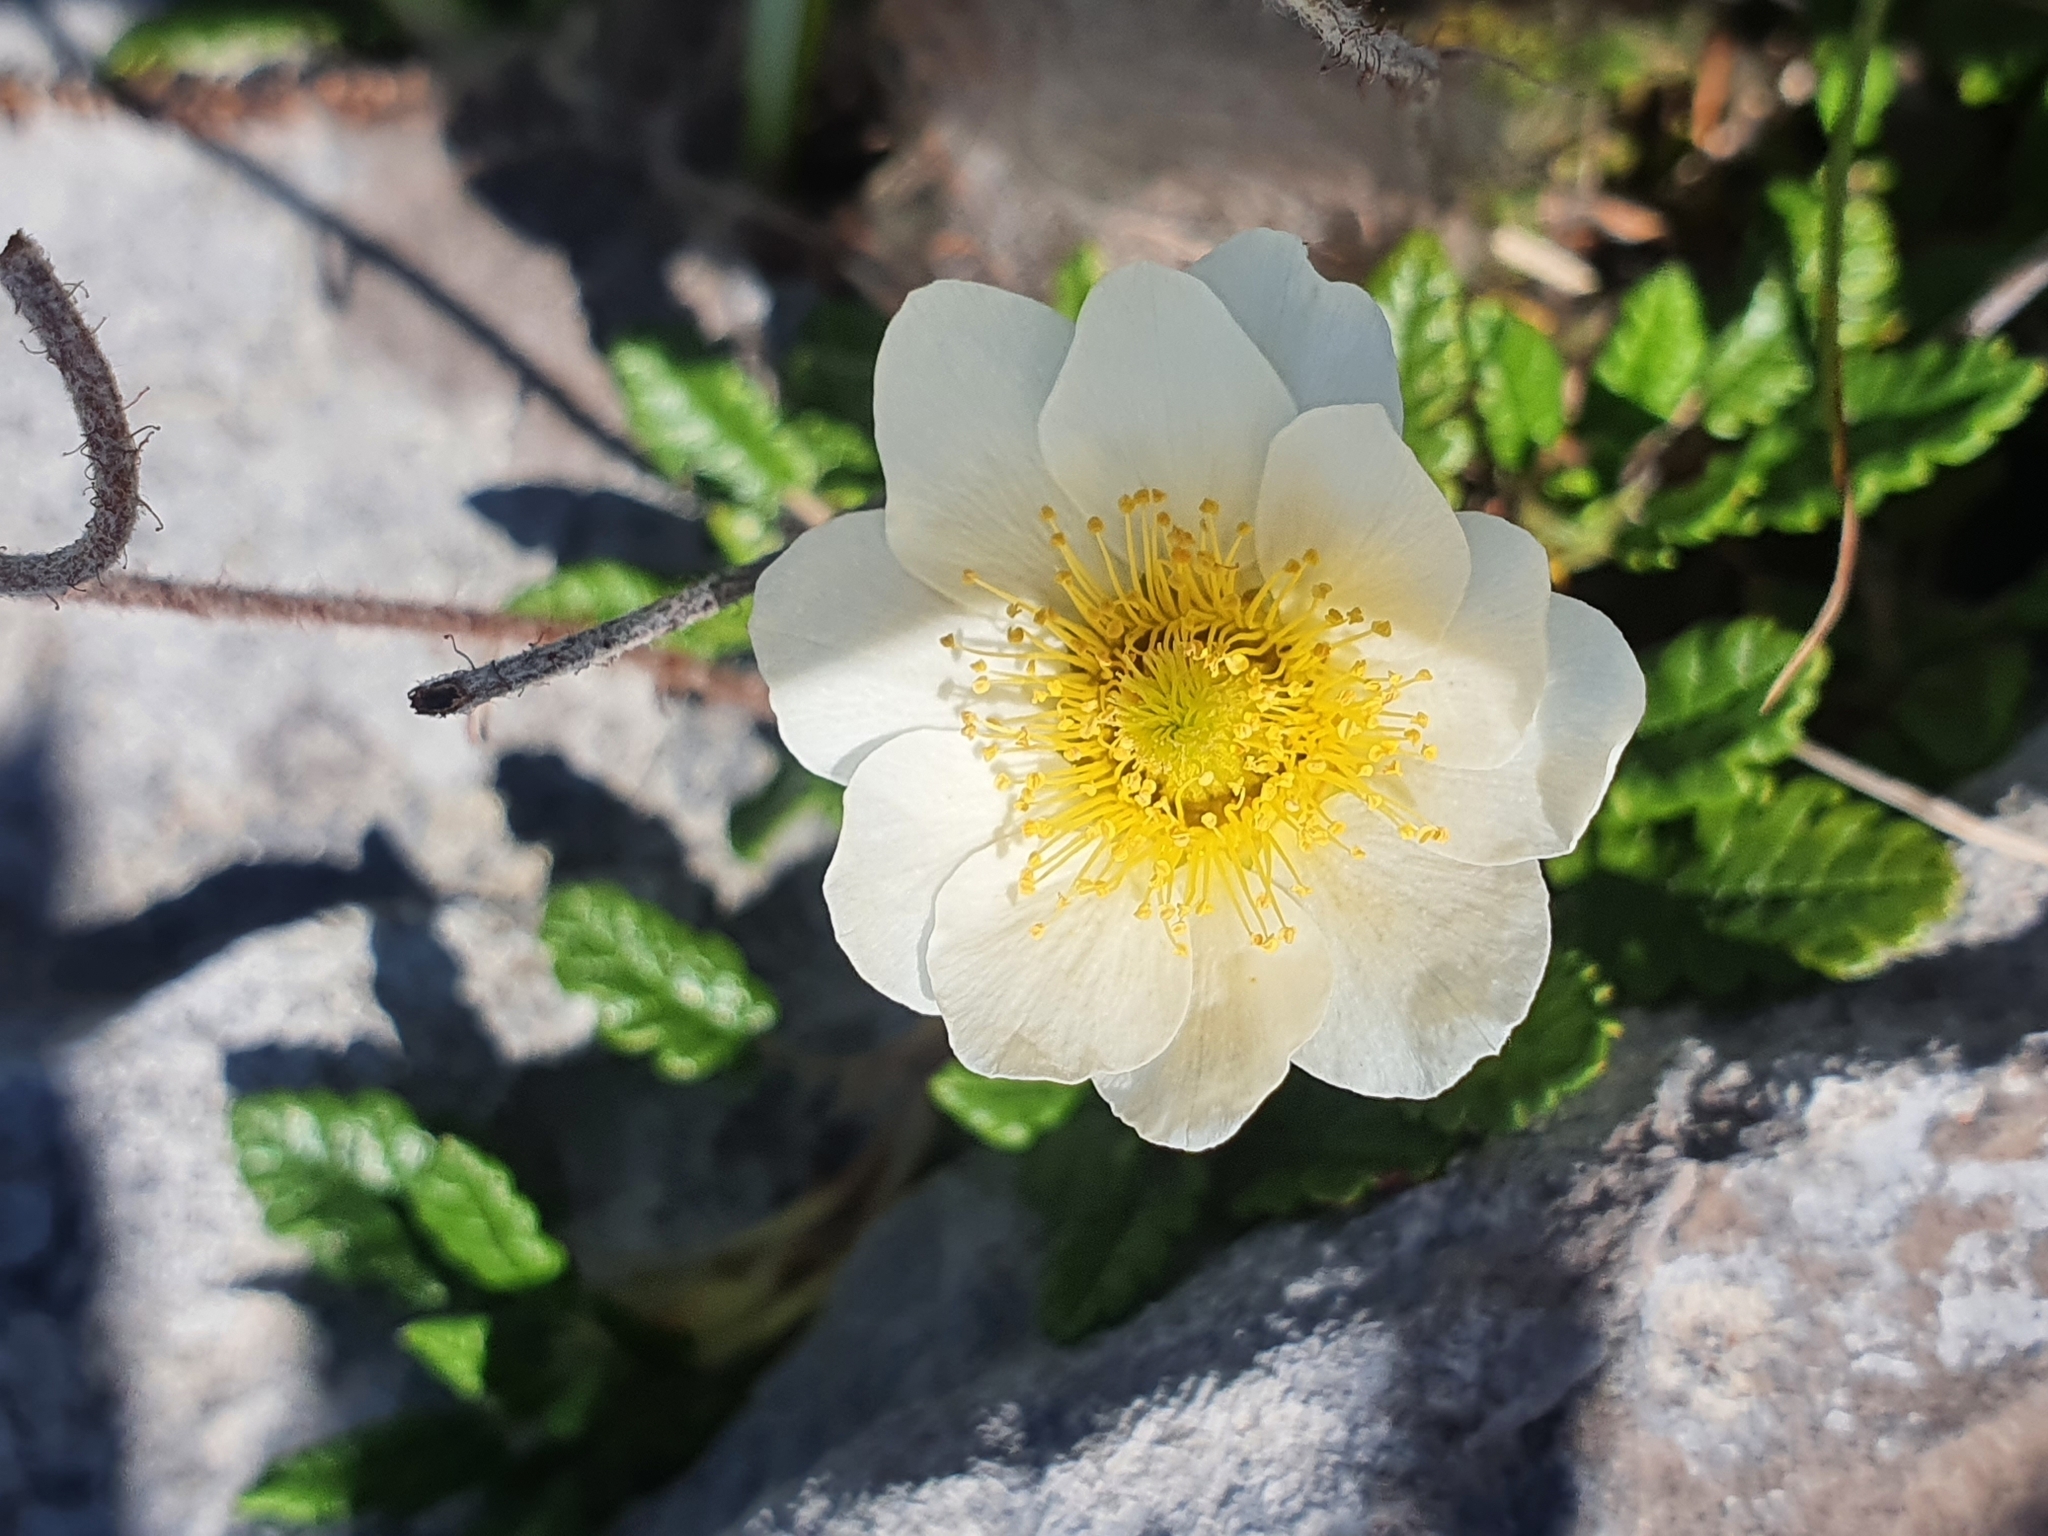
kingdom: Plantae
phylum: Tracheophyta
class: Magnoliopsida
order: Rosales
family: Rosaceae
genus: Dryas
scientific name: Dryas octopetala
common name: Eight-petal mountain-avens
